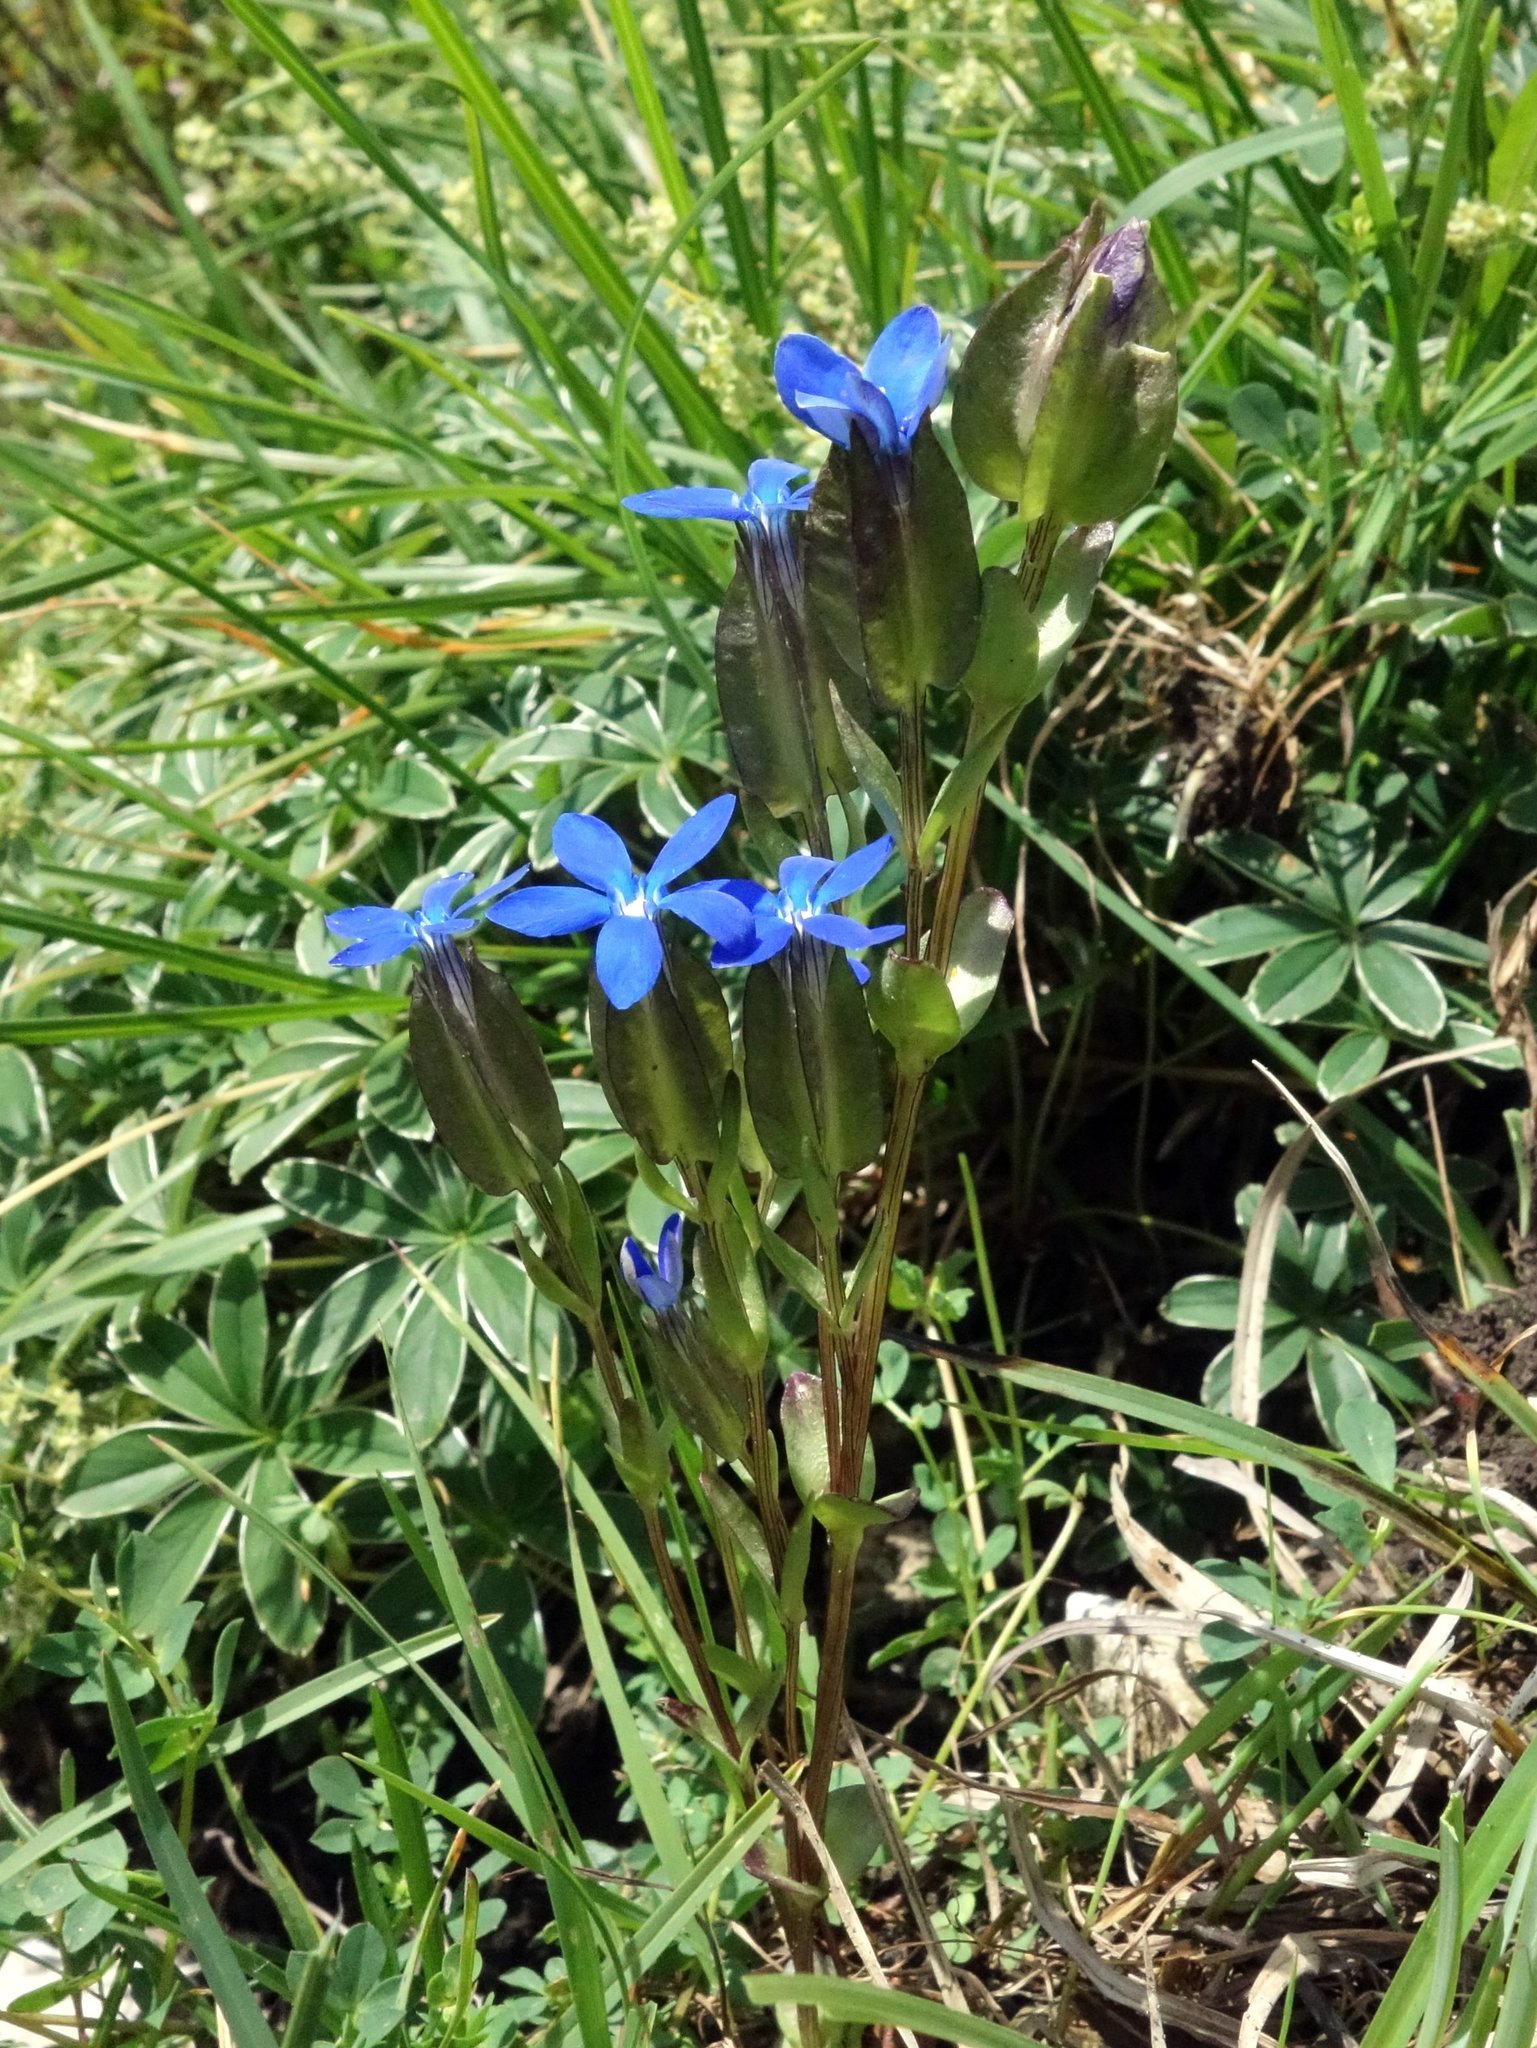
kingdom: Plantae
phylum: Tracheophyta
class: Magnoliopsida
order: Gentianales
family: Gentianaceae
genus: Gentiana
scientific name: Gentiana utriculosa
